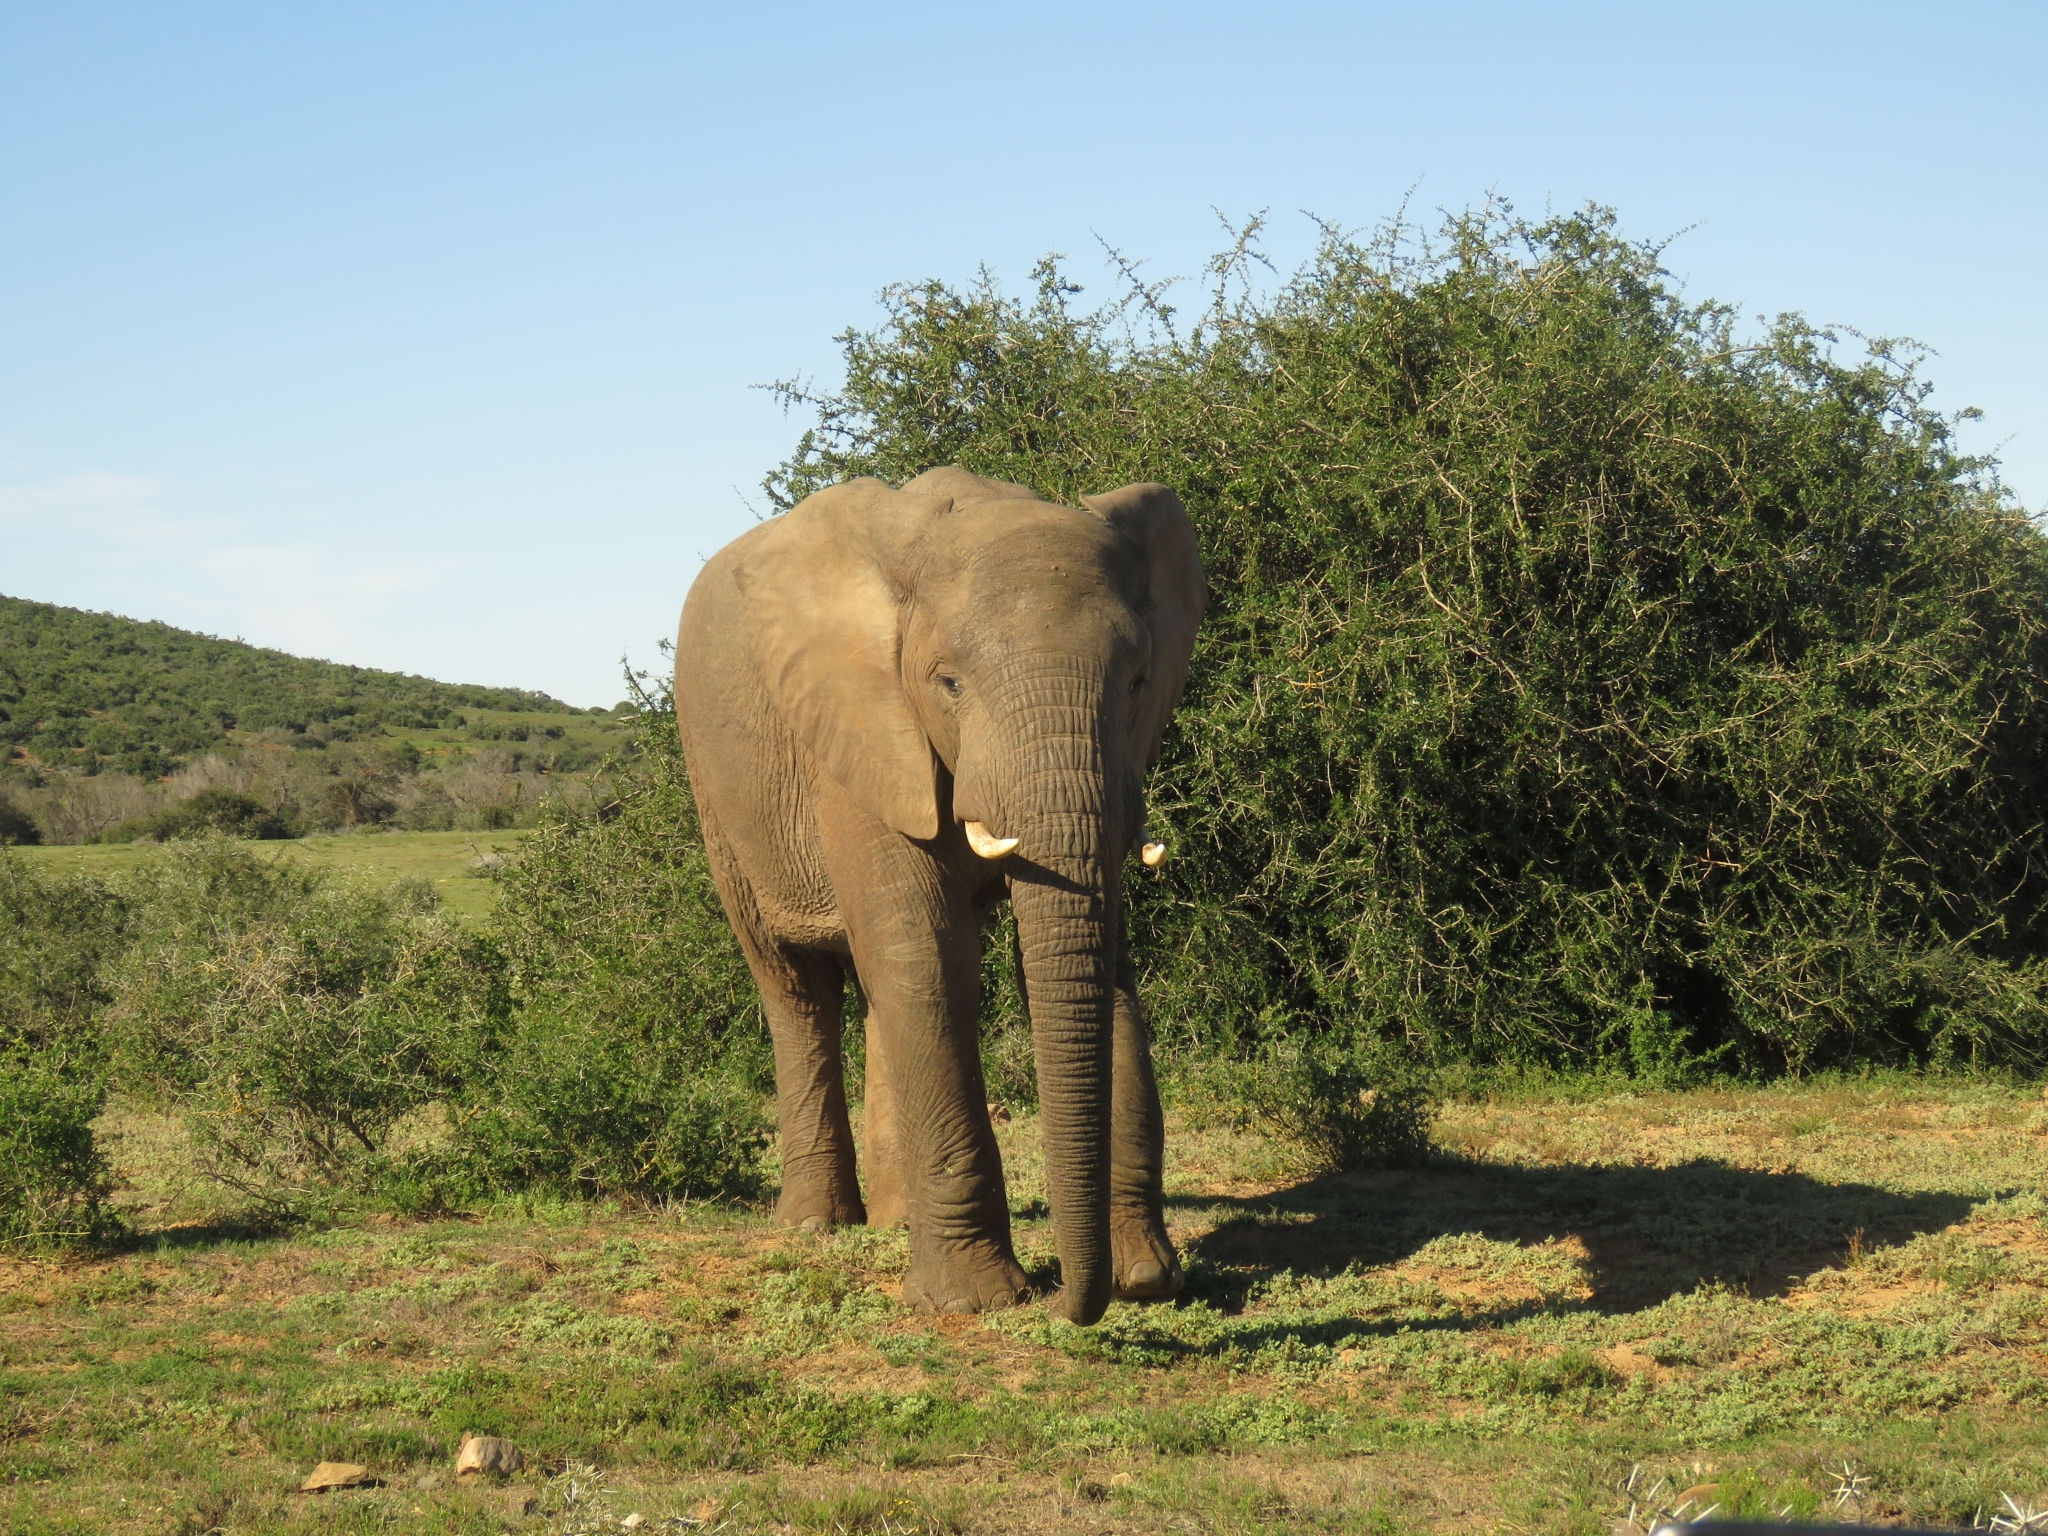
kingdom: Animalia
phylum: Chordata
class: Mammalia
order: Proboscidea
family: Elephantidae
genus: Loxodonta
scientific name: Loxodonta africana
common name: African elephant
